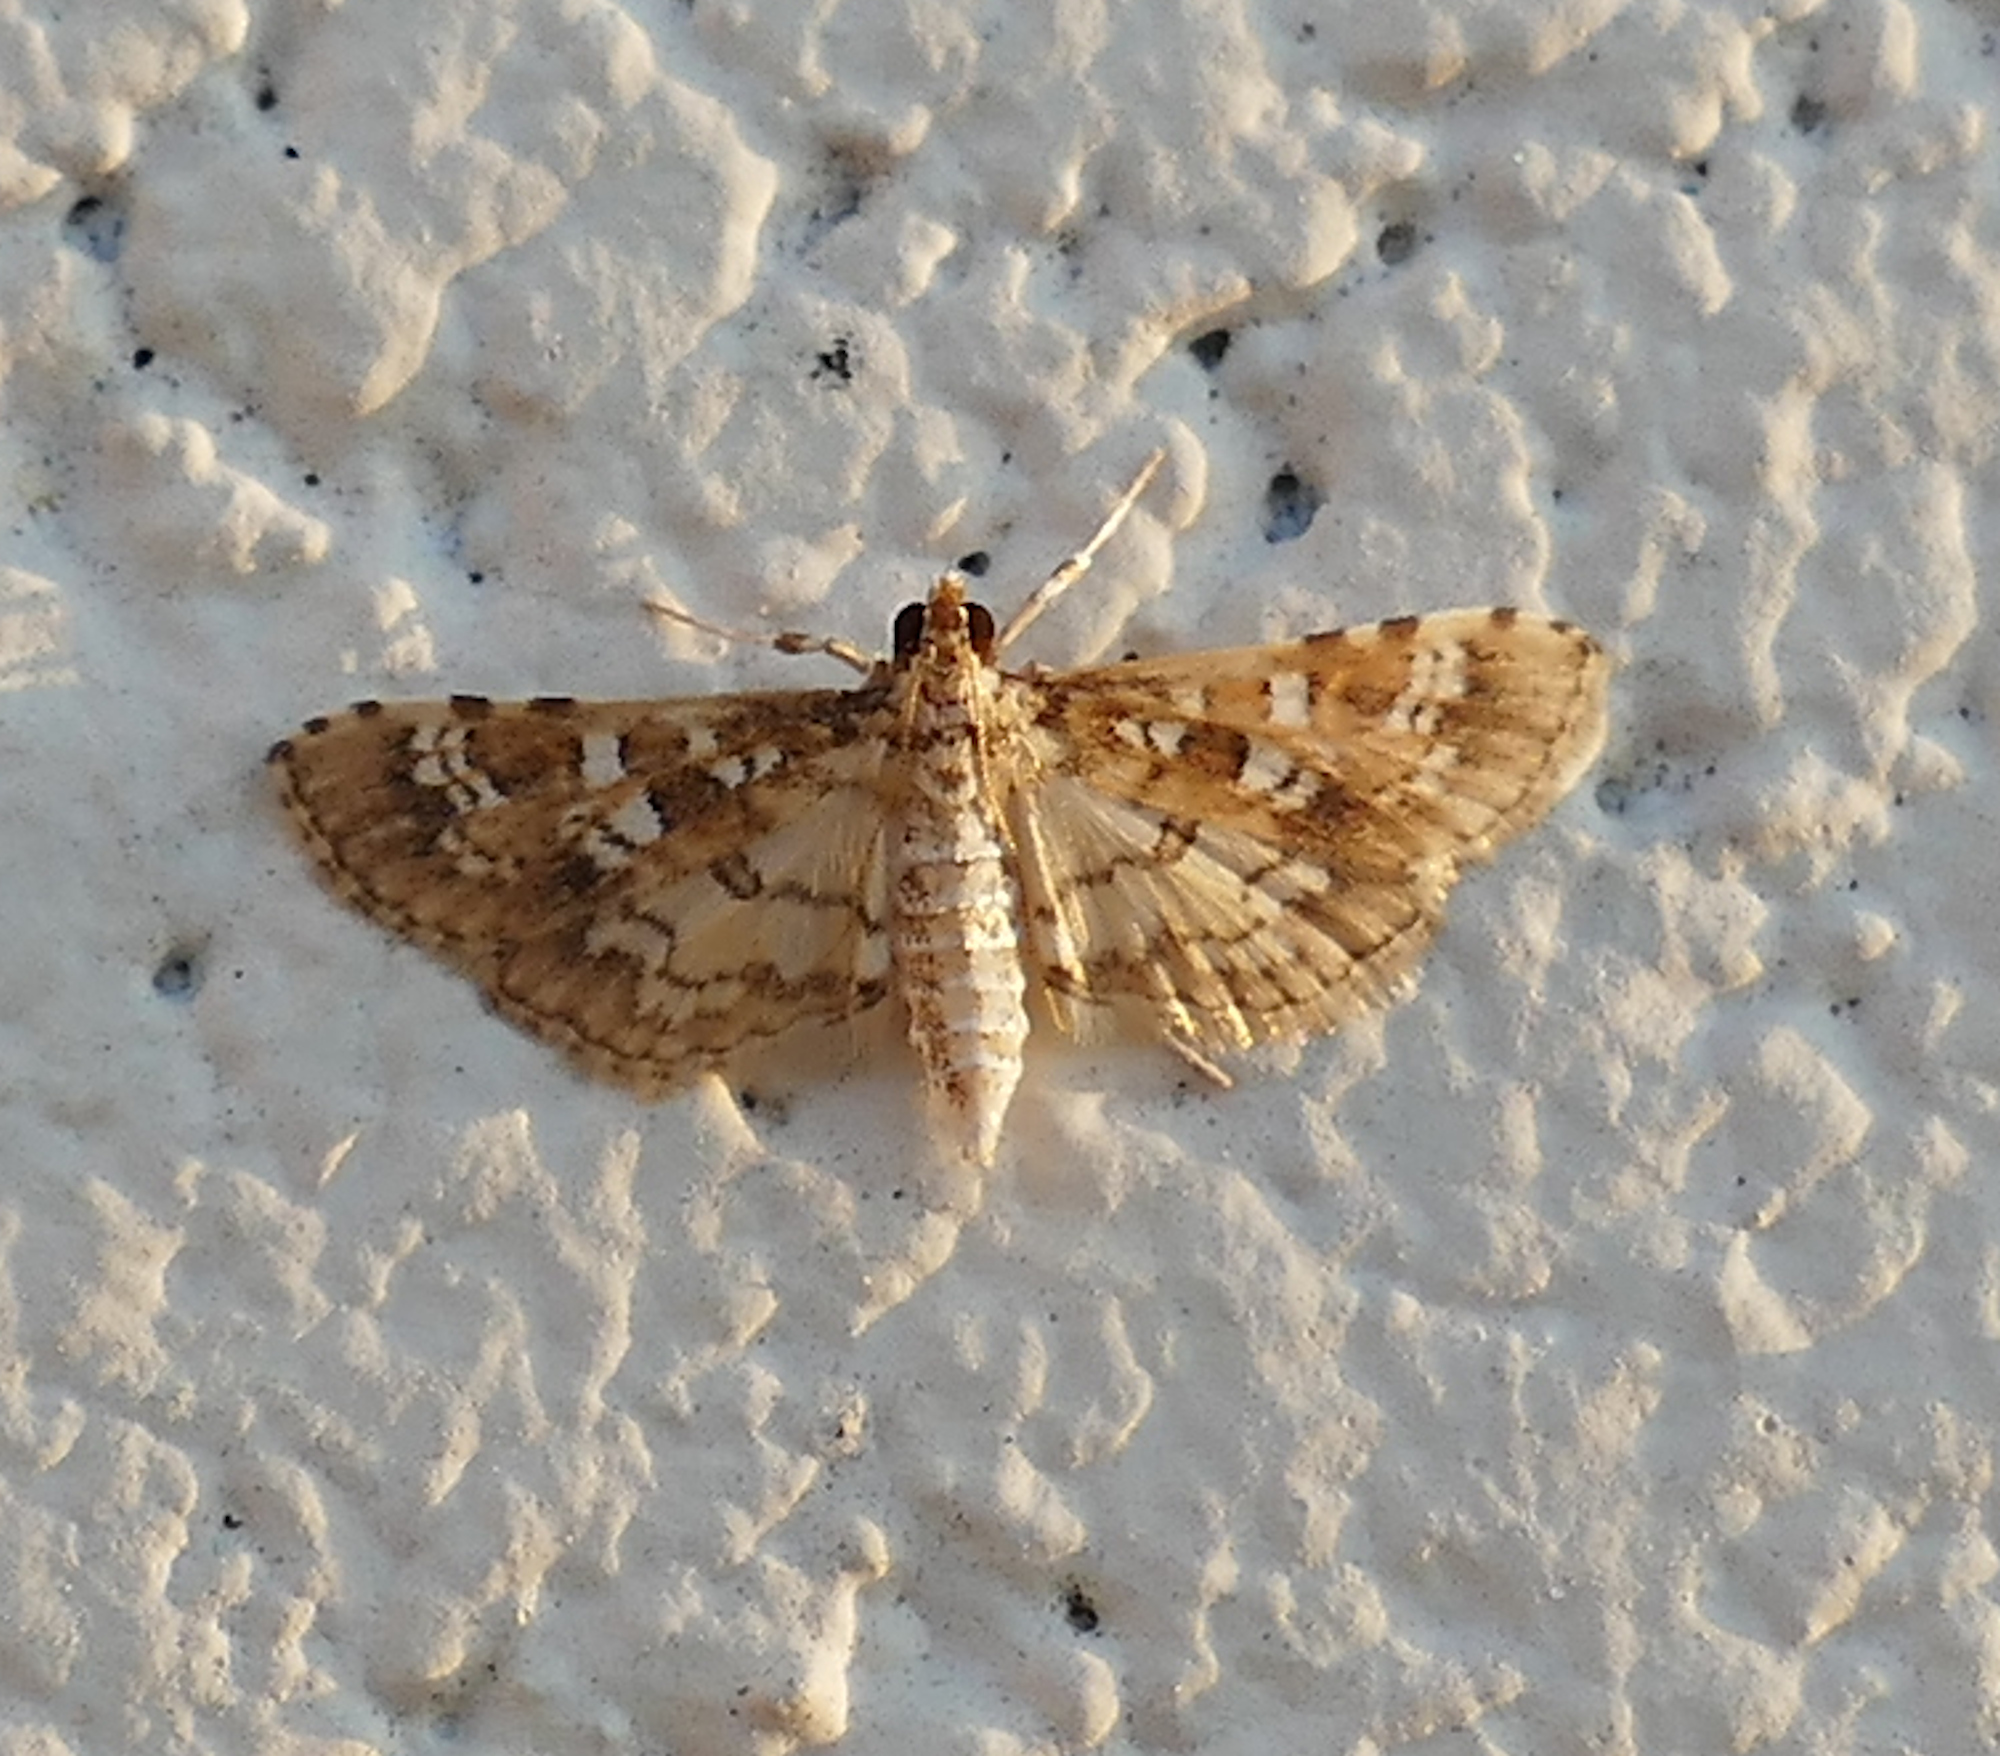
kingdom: Animalia
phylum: Arthropoda
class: Insecta
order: Lepidoptera
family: Crambidae
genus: Samea
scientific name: Samea multiplicalis
